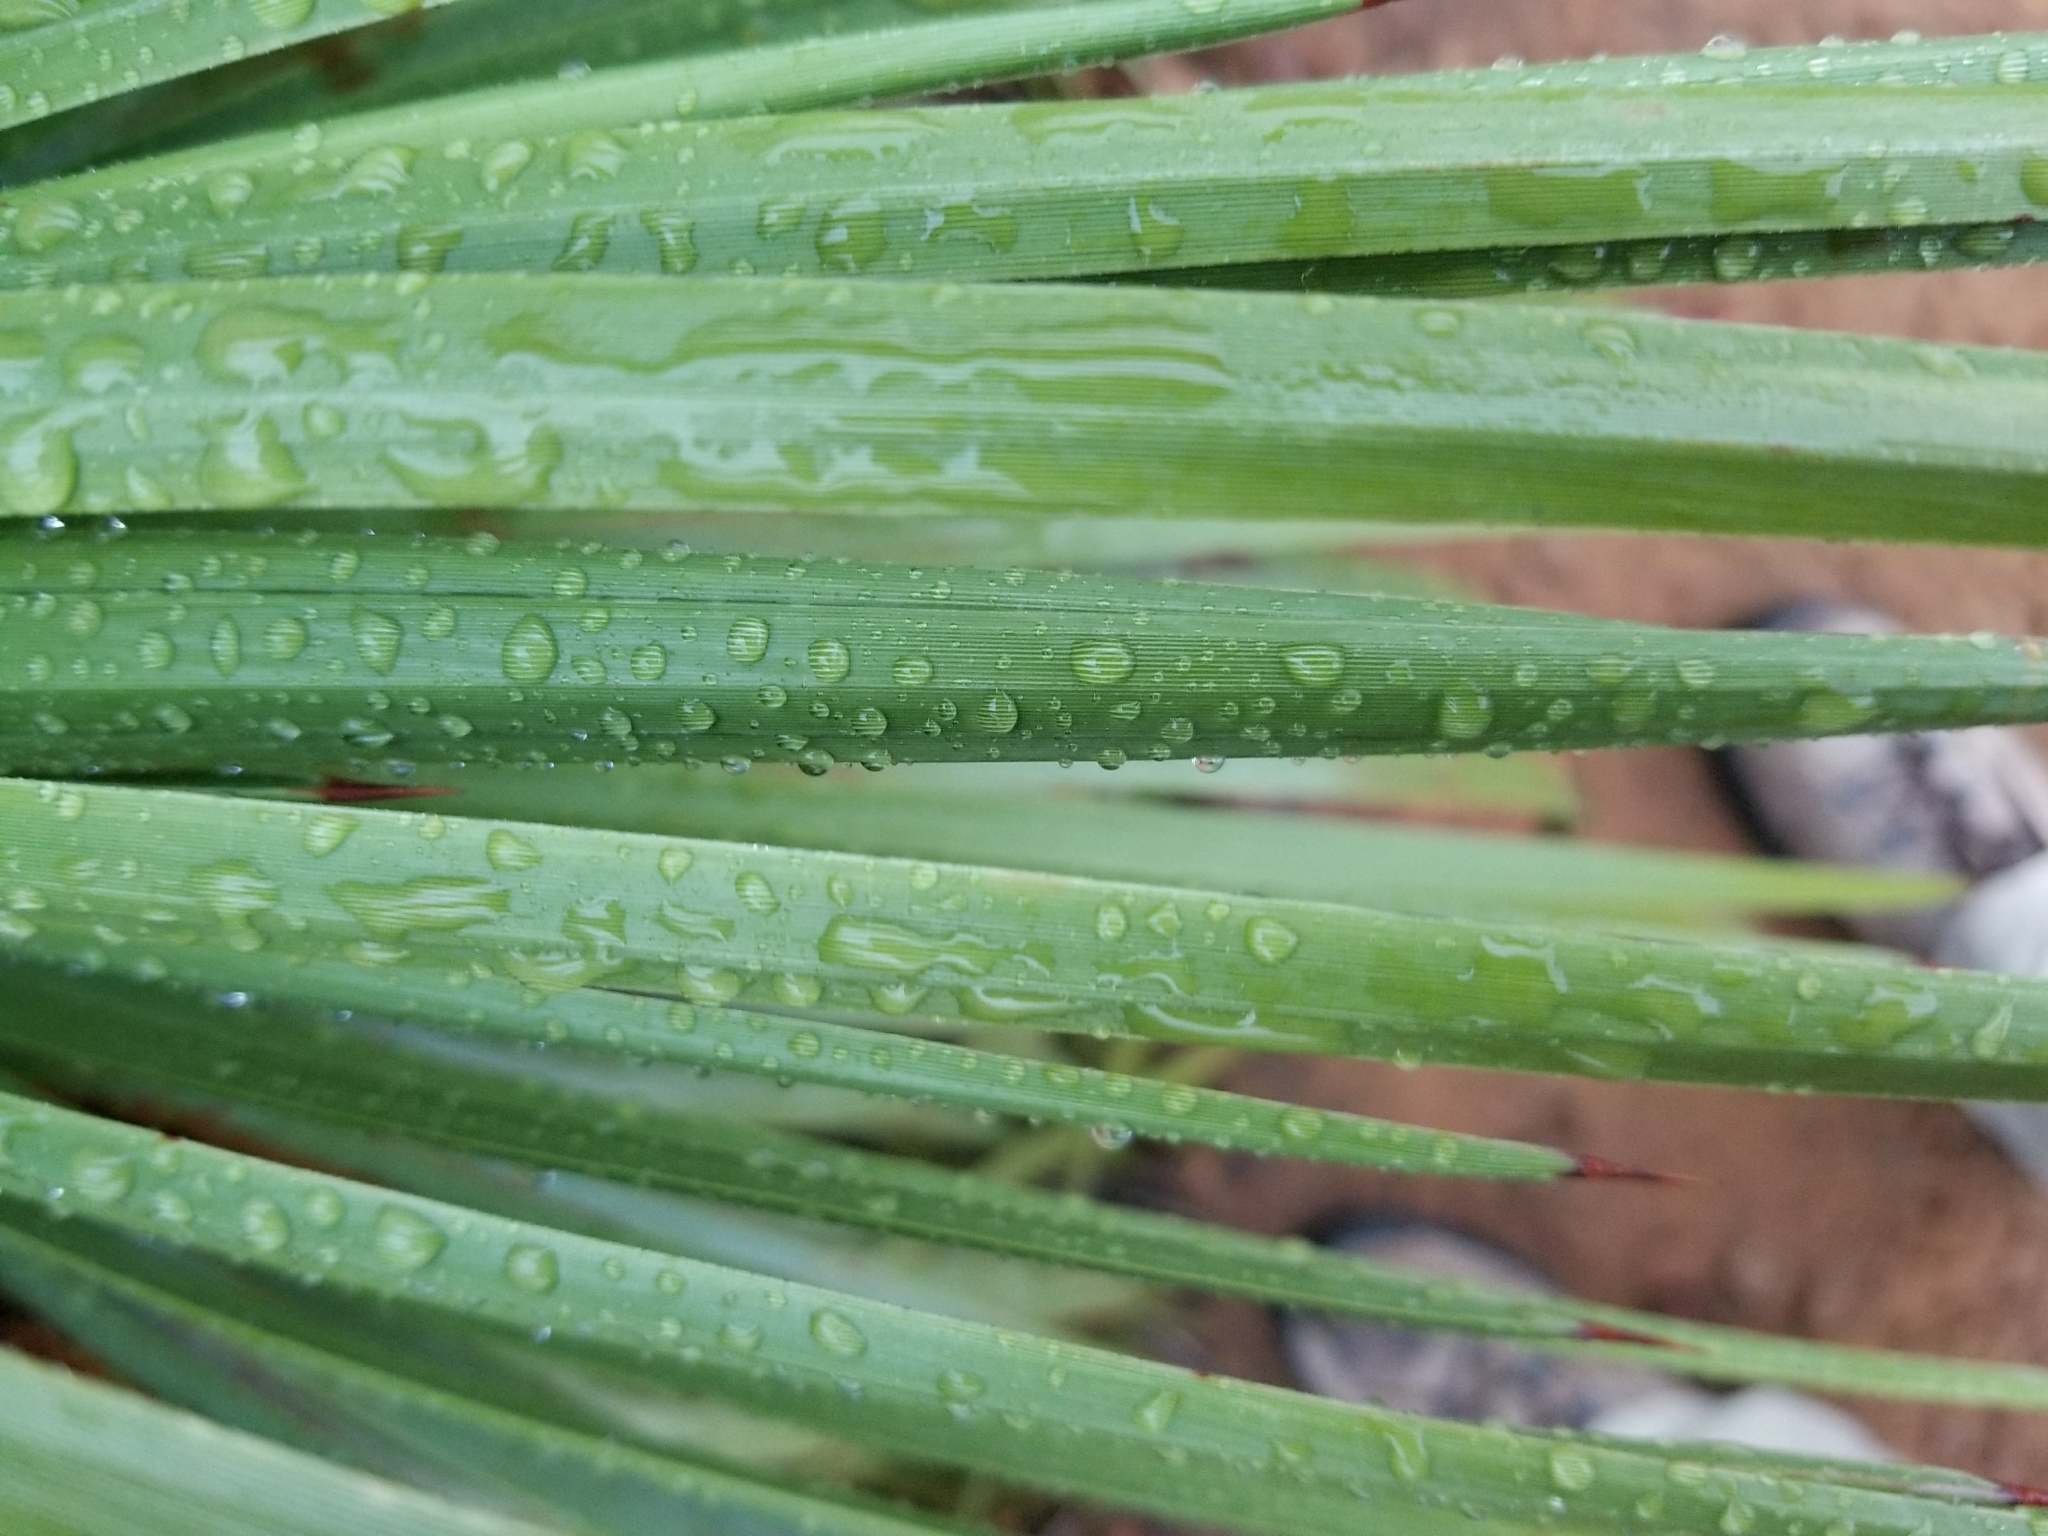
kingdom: Plantae
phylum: Tracheophyta
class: Liliopsida
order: Asparagales
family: Asparagaceae
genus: Hesperoyucca
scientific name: Hesperoyucca whipplei
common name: Our lord's-candle
